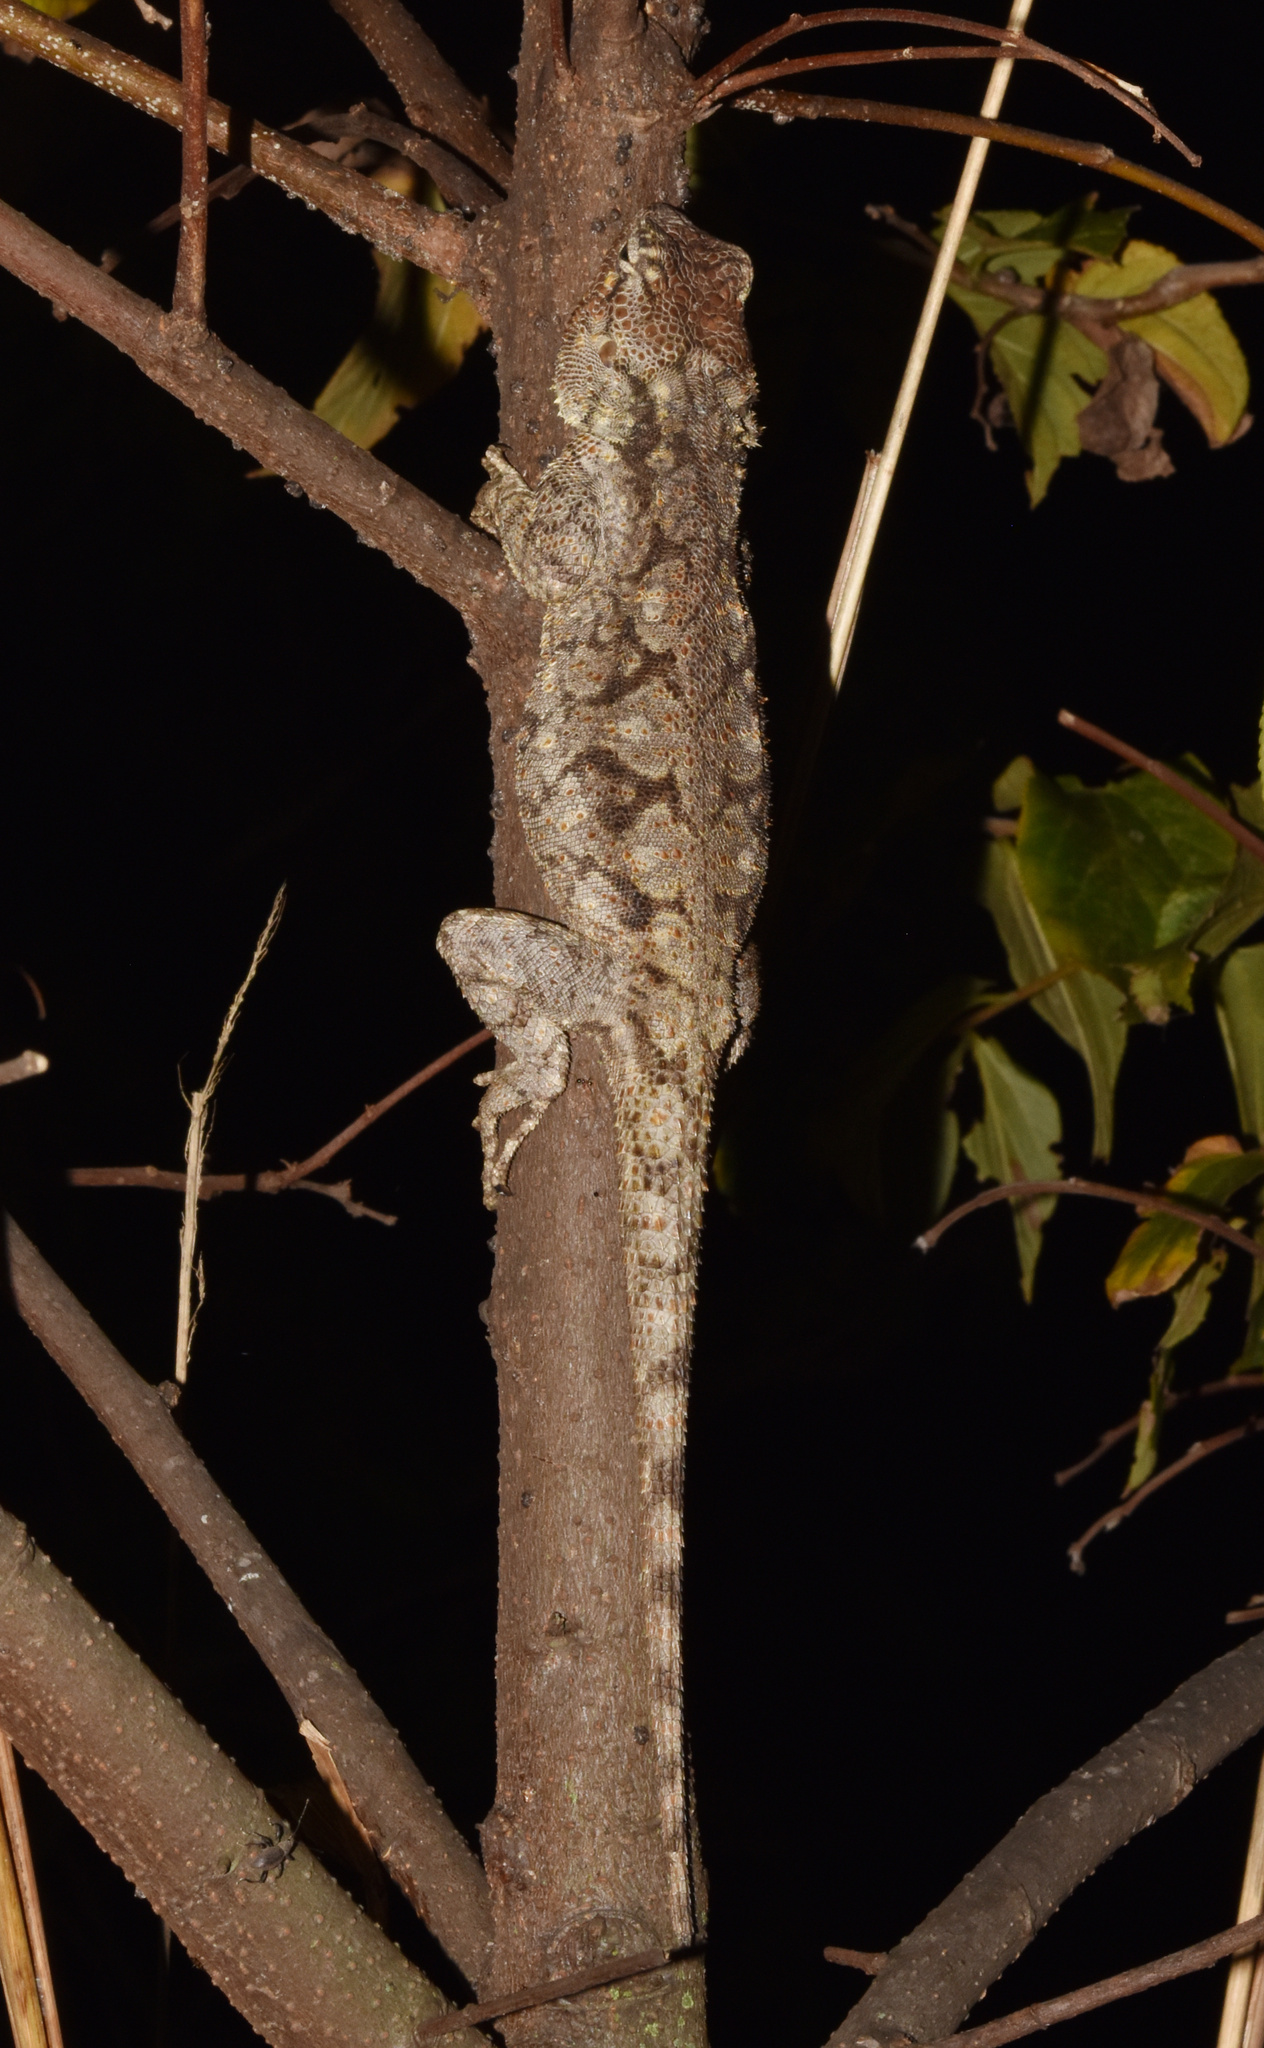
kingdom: Animalia
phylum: Chordata
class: Squamata
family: Agamidae
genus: Acanthocercus
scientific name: Acanthocercus atricollis
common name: Southern tree agama
